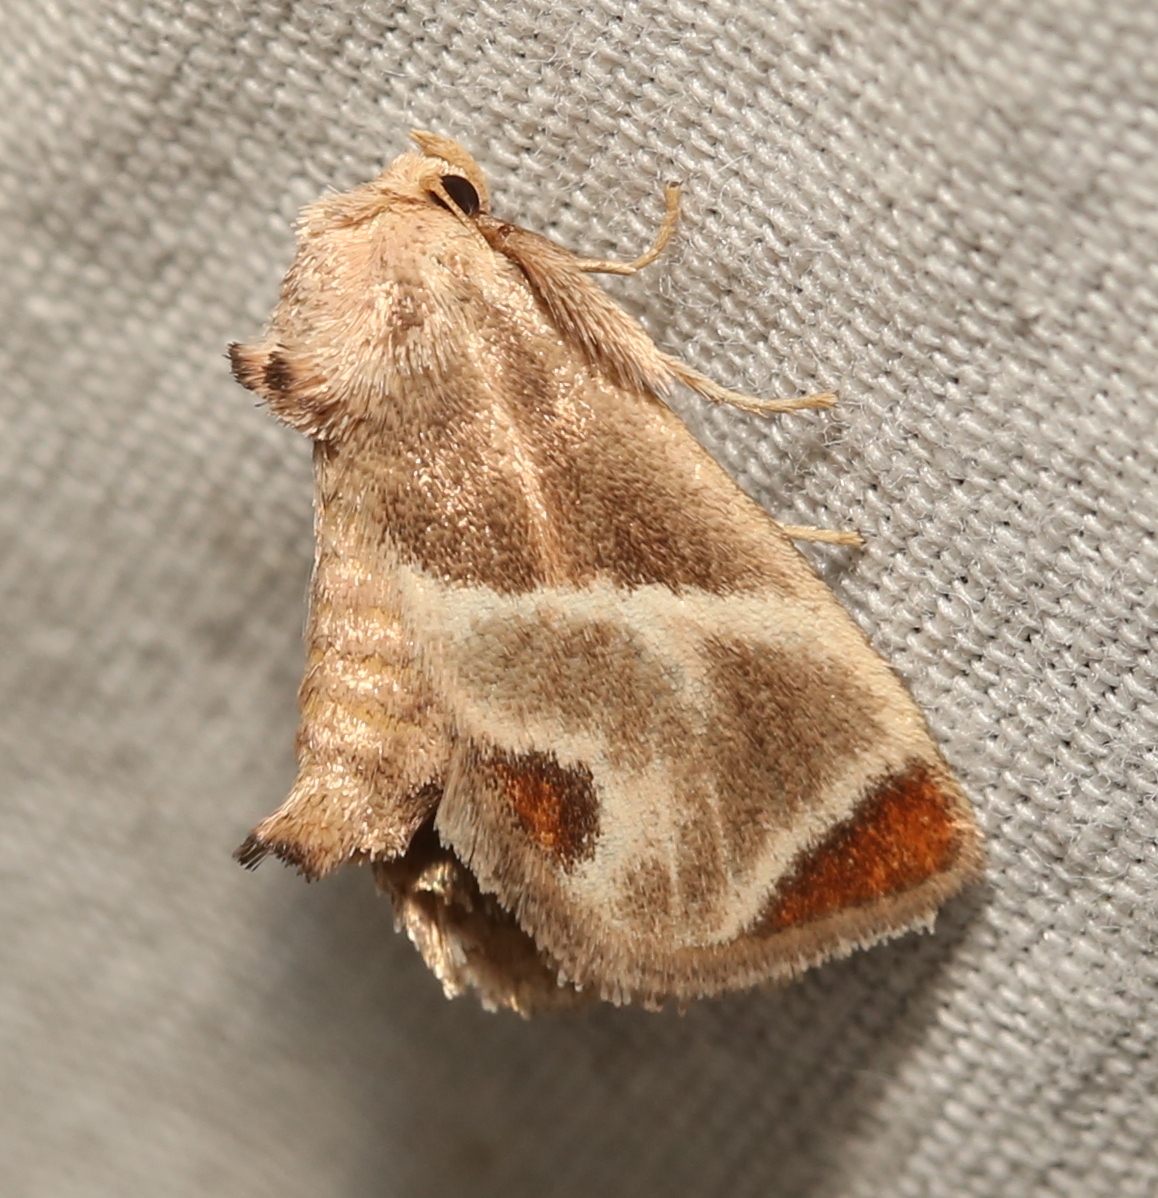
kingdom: Animalia
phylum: Arthropoda
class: Insecta
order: Lepidoptera
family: Limacodidae
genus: Apoda
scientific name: Apoda biguttata
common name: Shagreened slug moth
